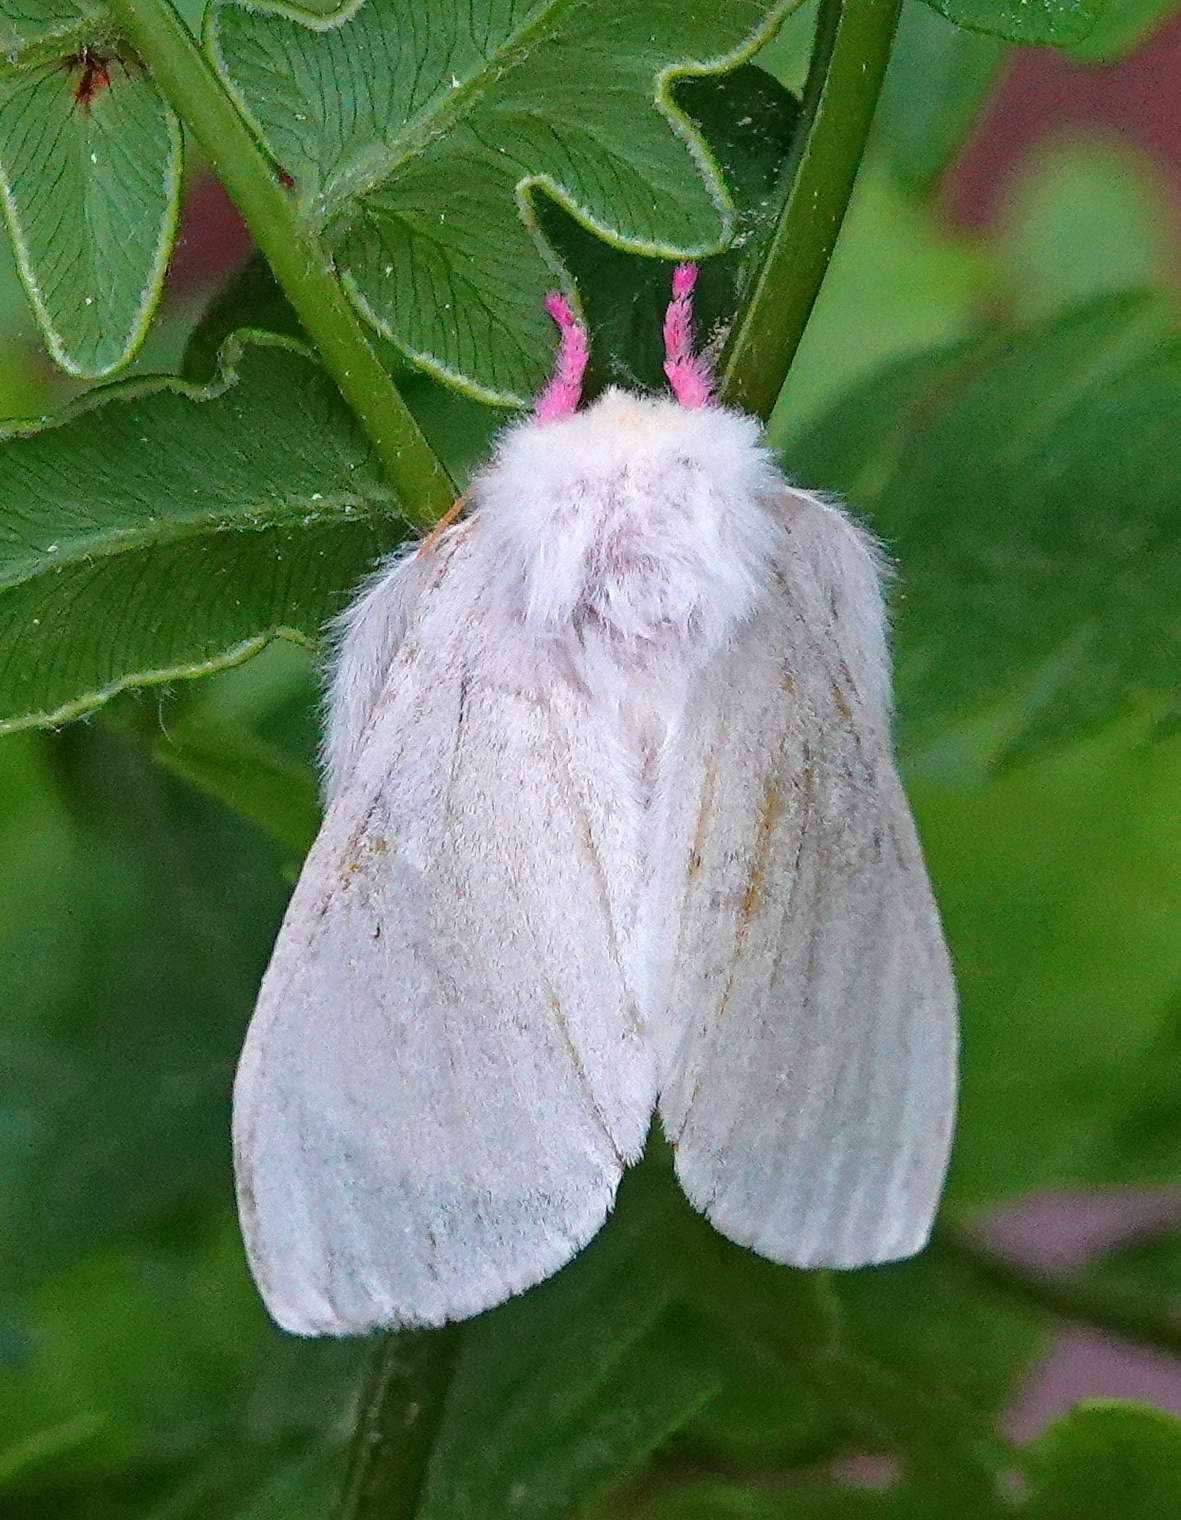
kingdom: Animalia
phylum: Arthropoda
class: Insecta
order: Lepidoptera
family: Saturniidae
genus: Dryocampa
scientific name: Dryocampa rubicunda
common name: Rosy maple moth
